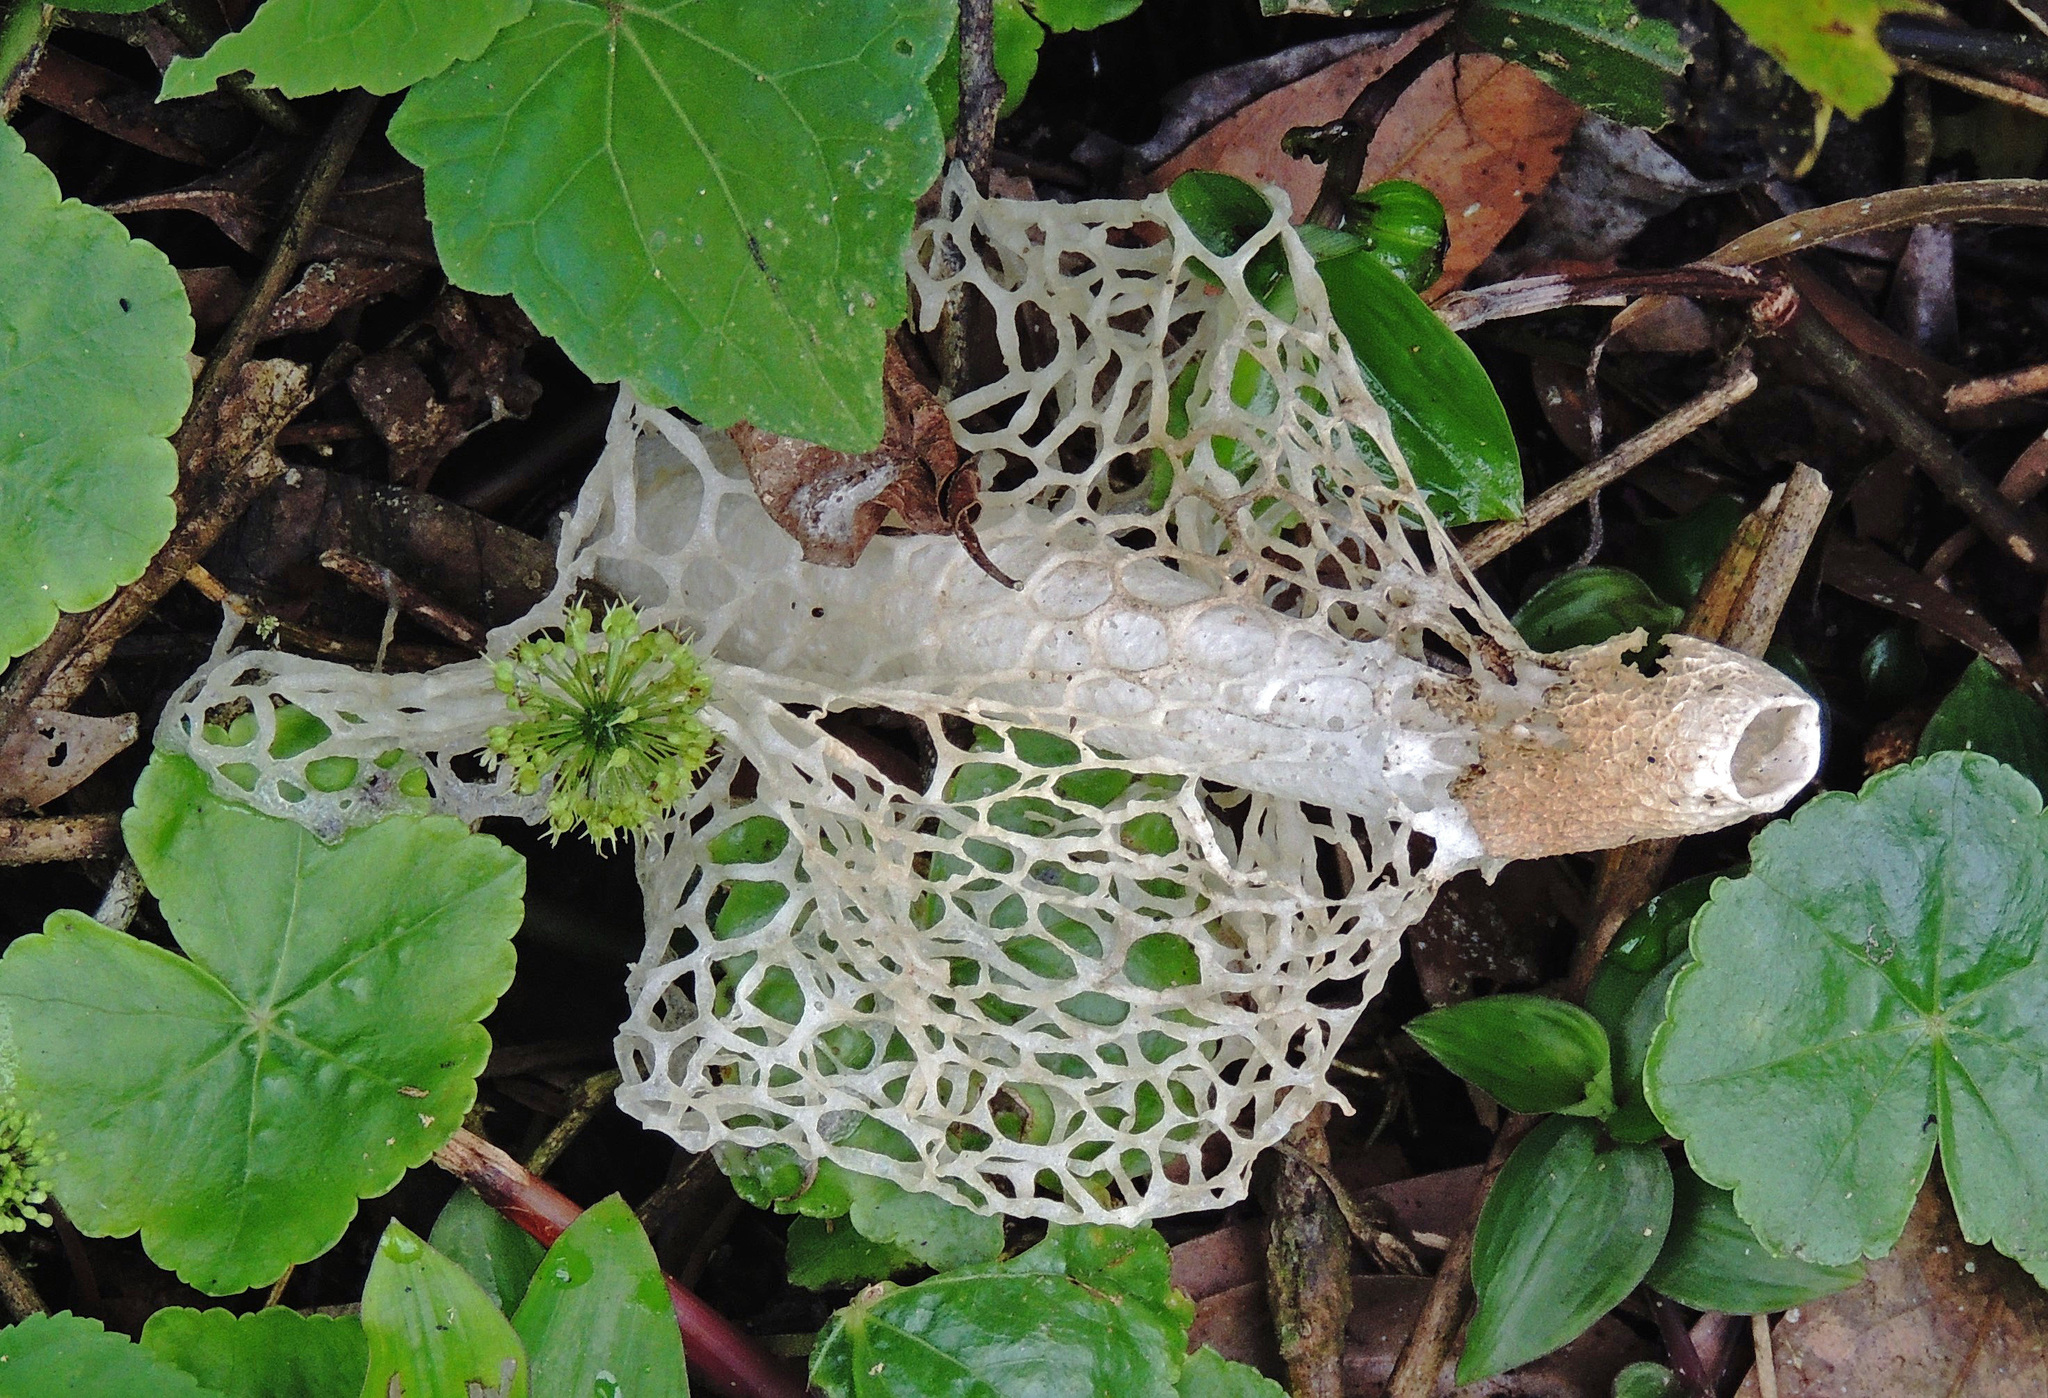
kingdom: Fungi
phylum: Basidiomycota
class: Agaricomycetes
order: Phallales
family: Phallaceae
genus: Phallus
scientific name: Phallus indusiatus
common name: Bridal veil stinkhorn
